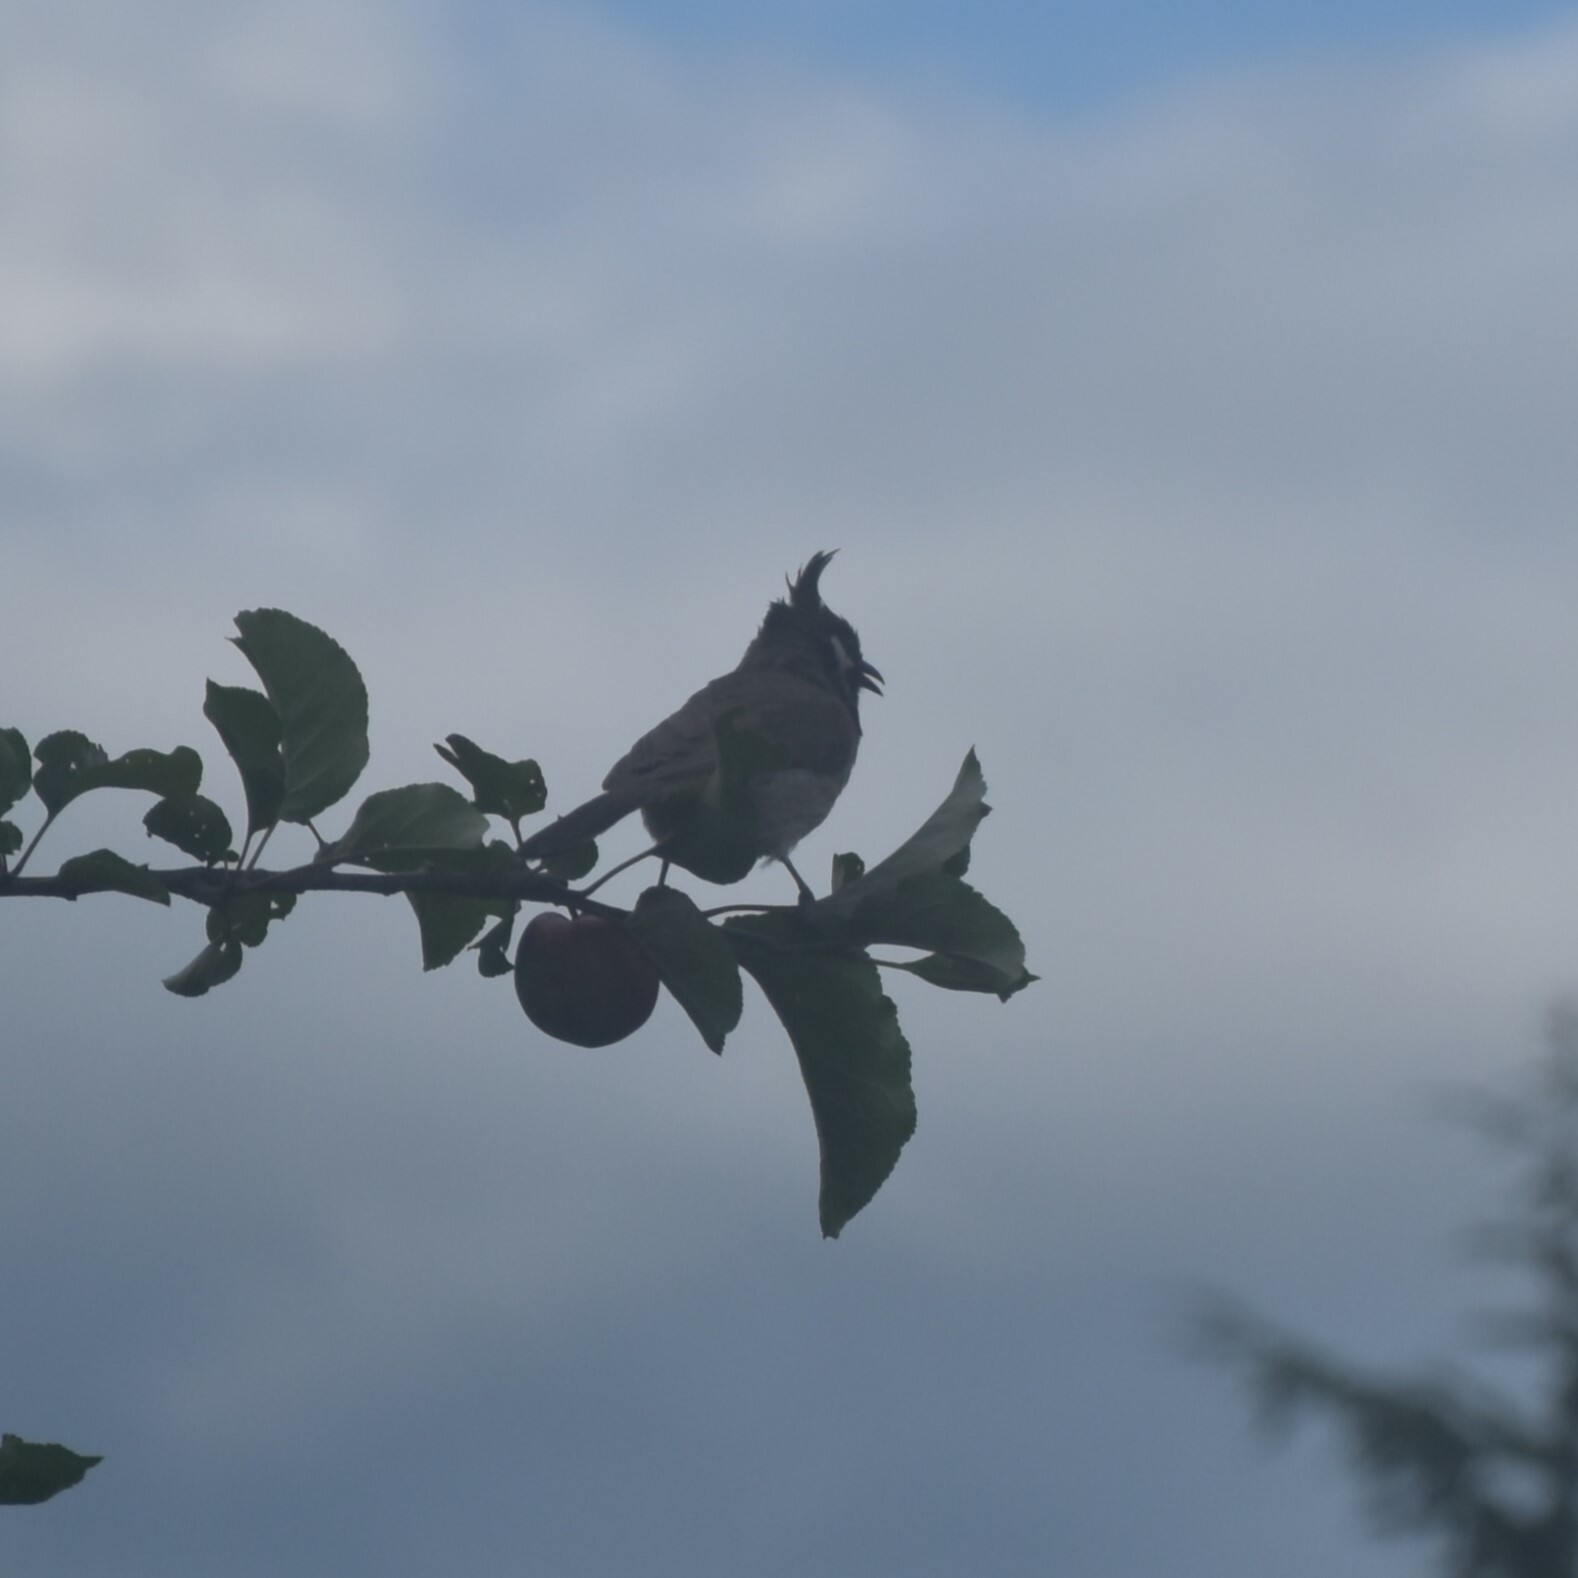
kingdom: Animalia
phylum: Chordata
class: Aves
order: Passeriformes
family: Pycnonotidae
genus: Pycnonotus
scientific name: Pycnonotus leucogenys
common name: Himalayan bulbul
